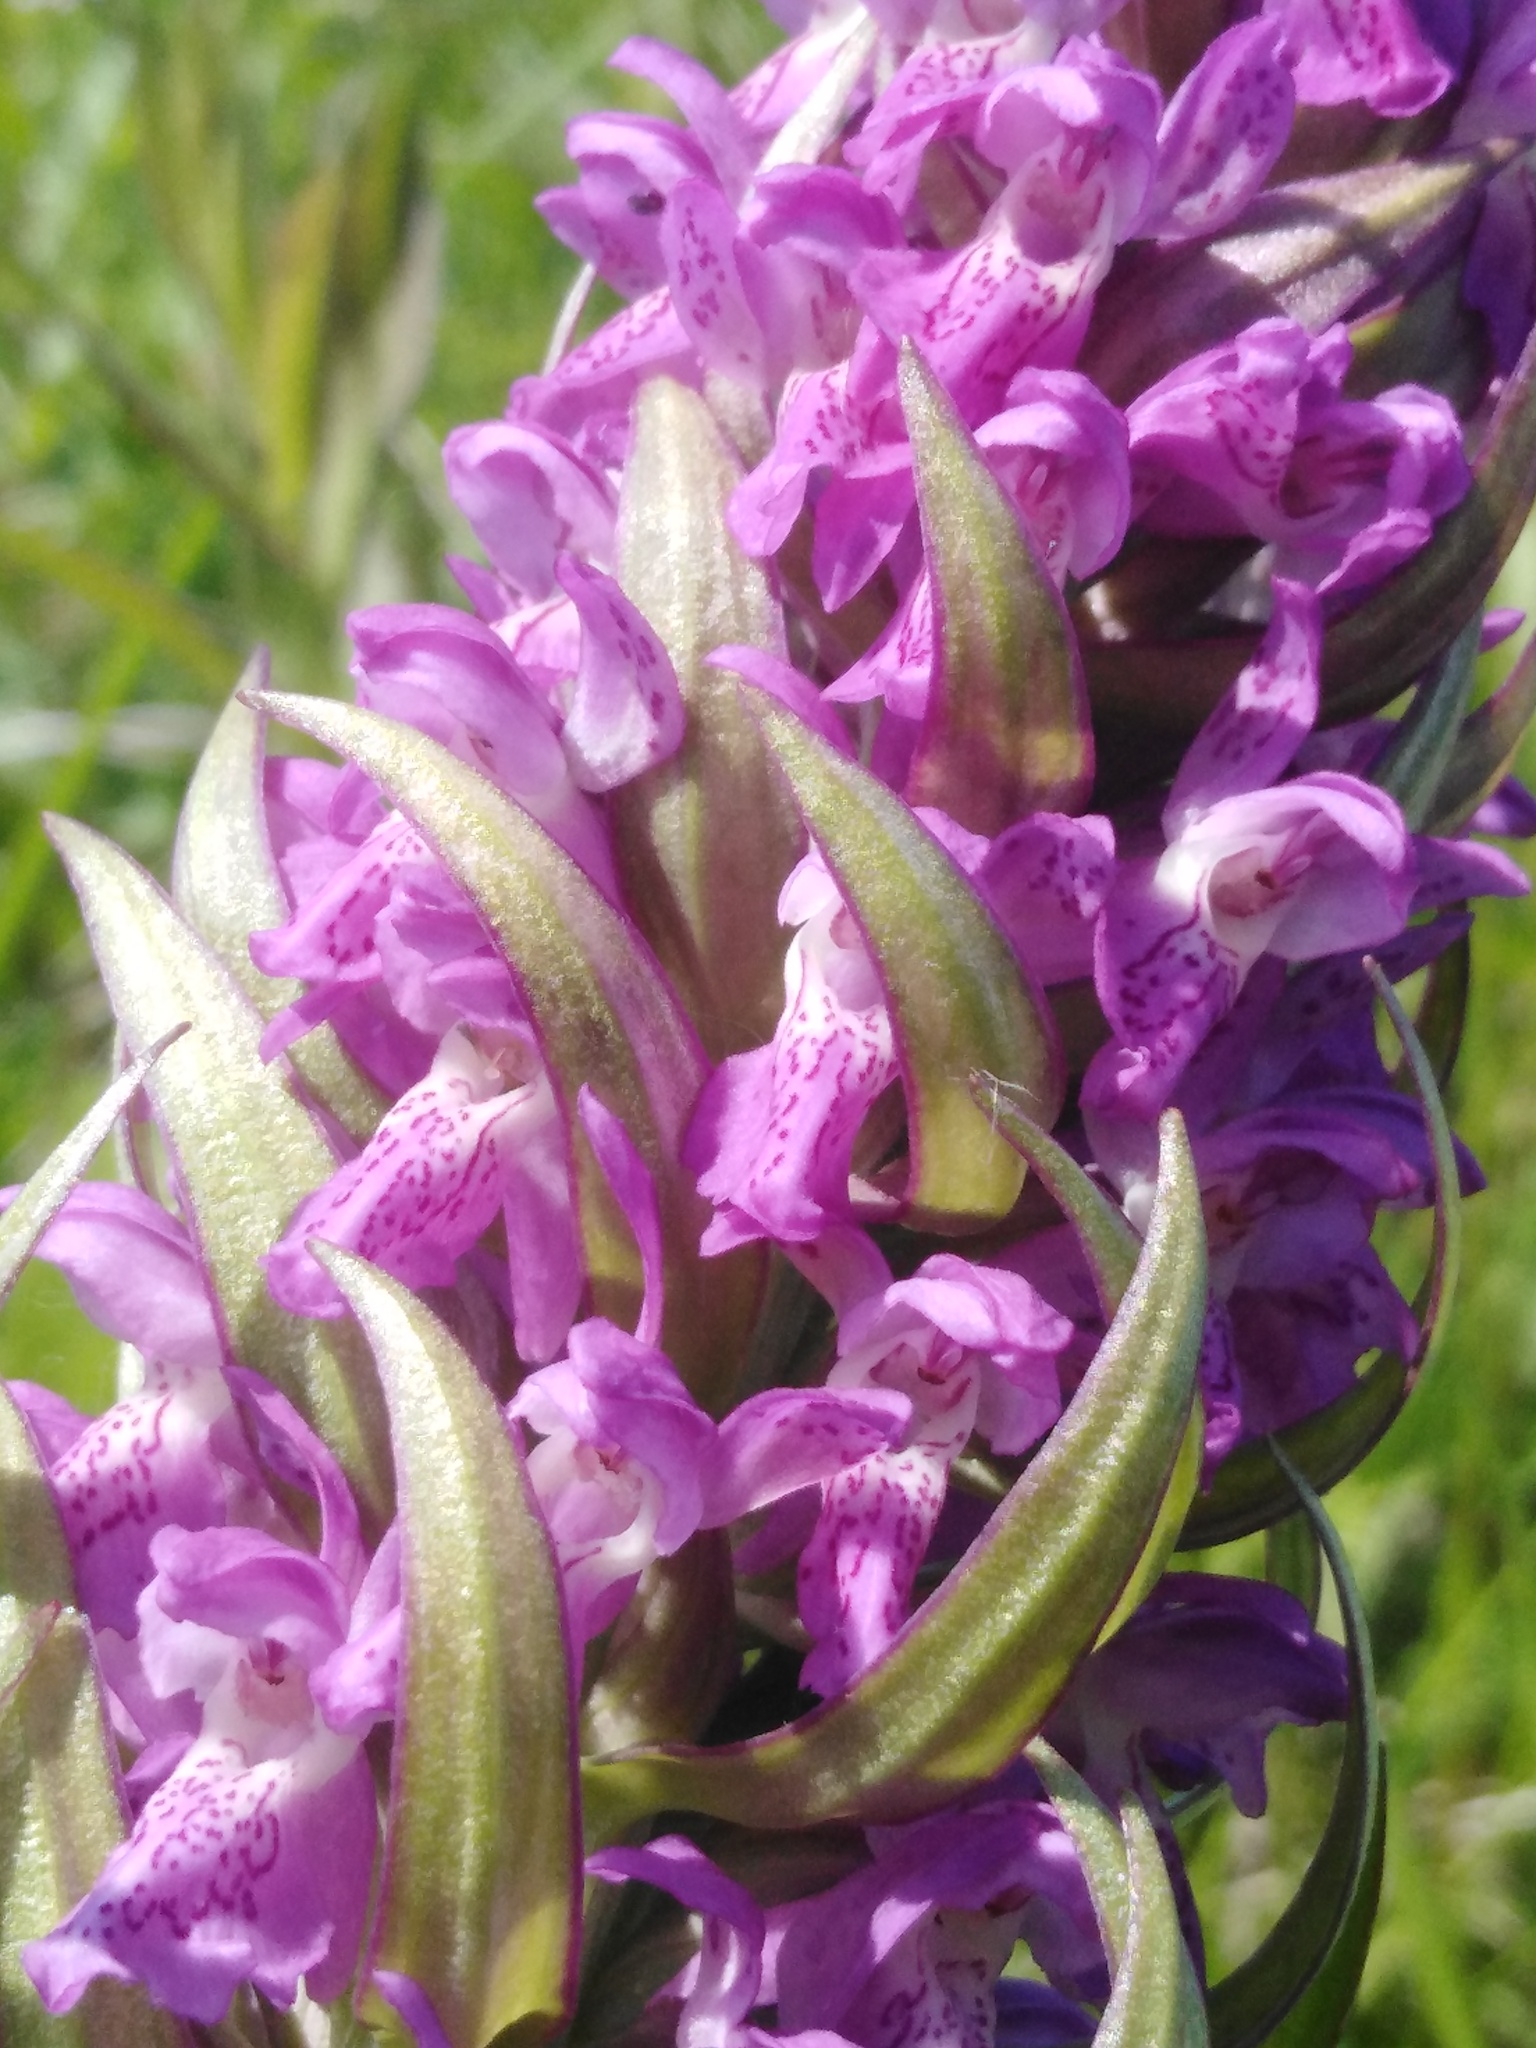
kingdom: Plantae
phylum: Tracheophyta
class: Liliopsida
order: Asparagales
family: Orchidaceae
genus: Dactylorhiza
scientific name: Dactylorhiza incarnata
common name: Early marsh-orchid
